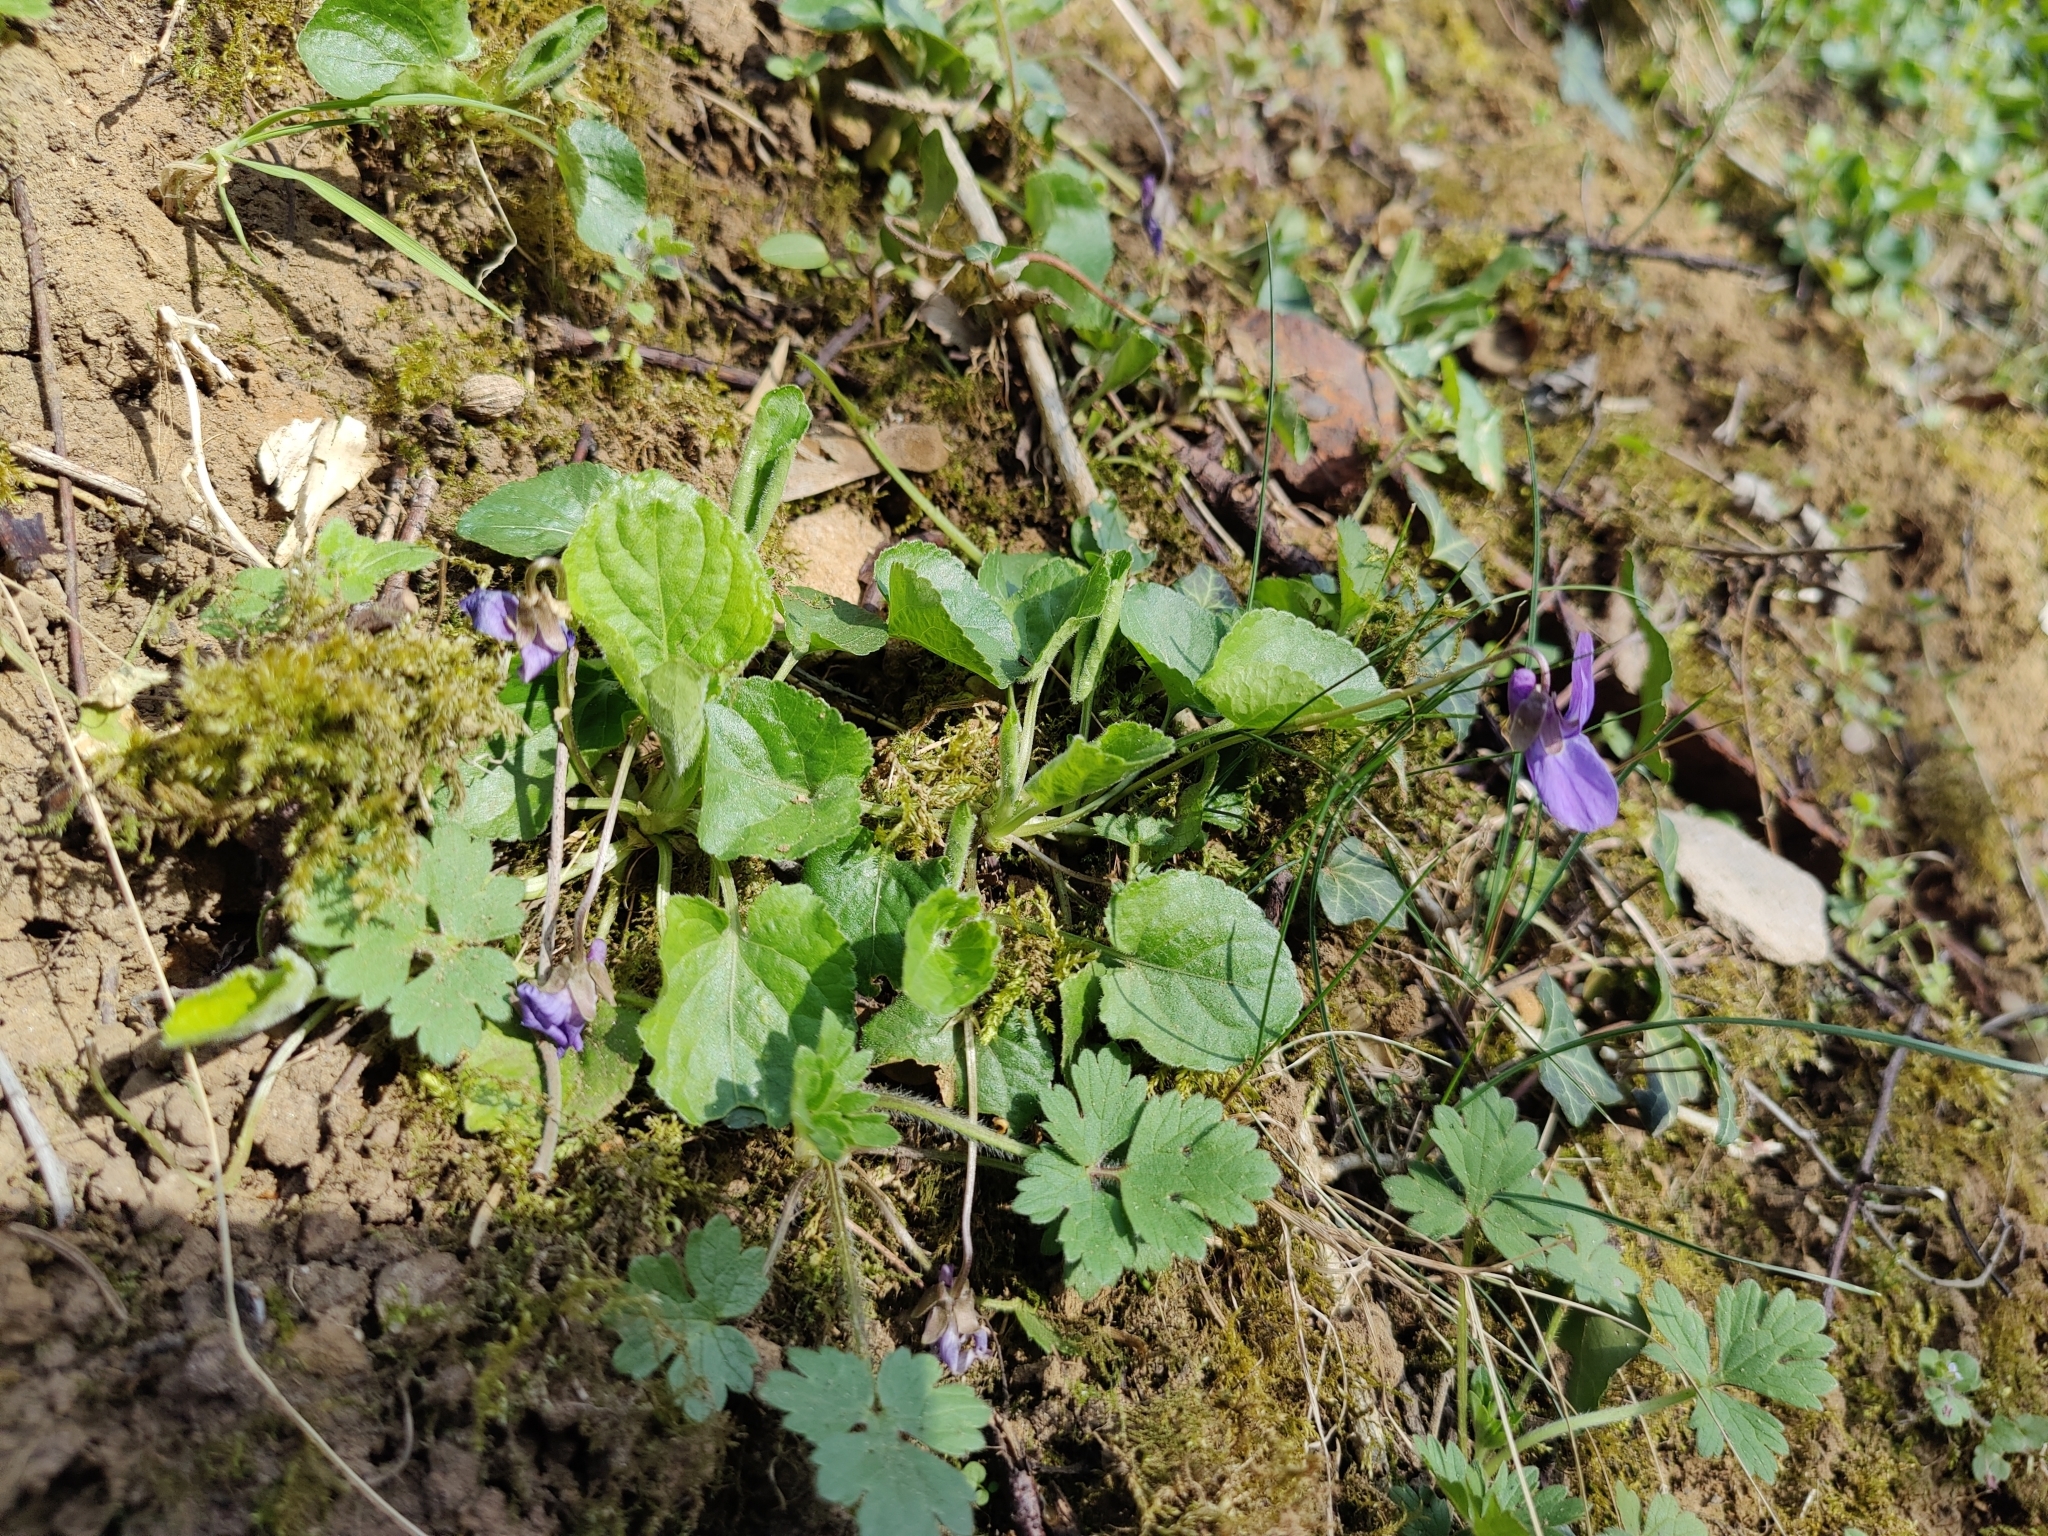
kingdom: Plantae
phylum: Tracheophyta
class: Magnoliopsida
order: Malpighiales
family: Violaceae
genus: Viola
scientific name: Viola odorata
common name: Sweet violet
